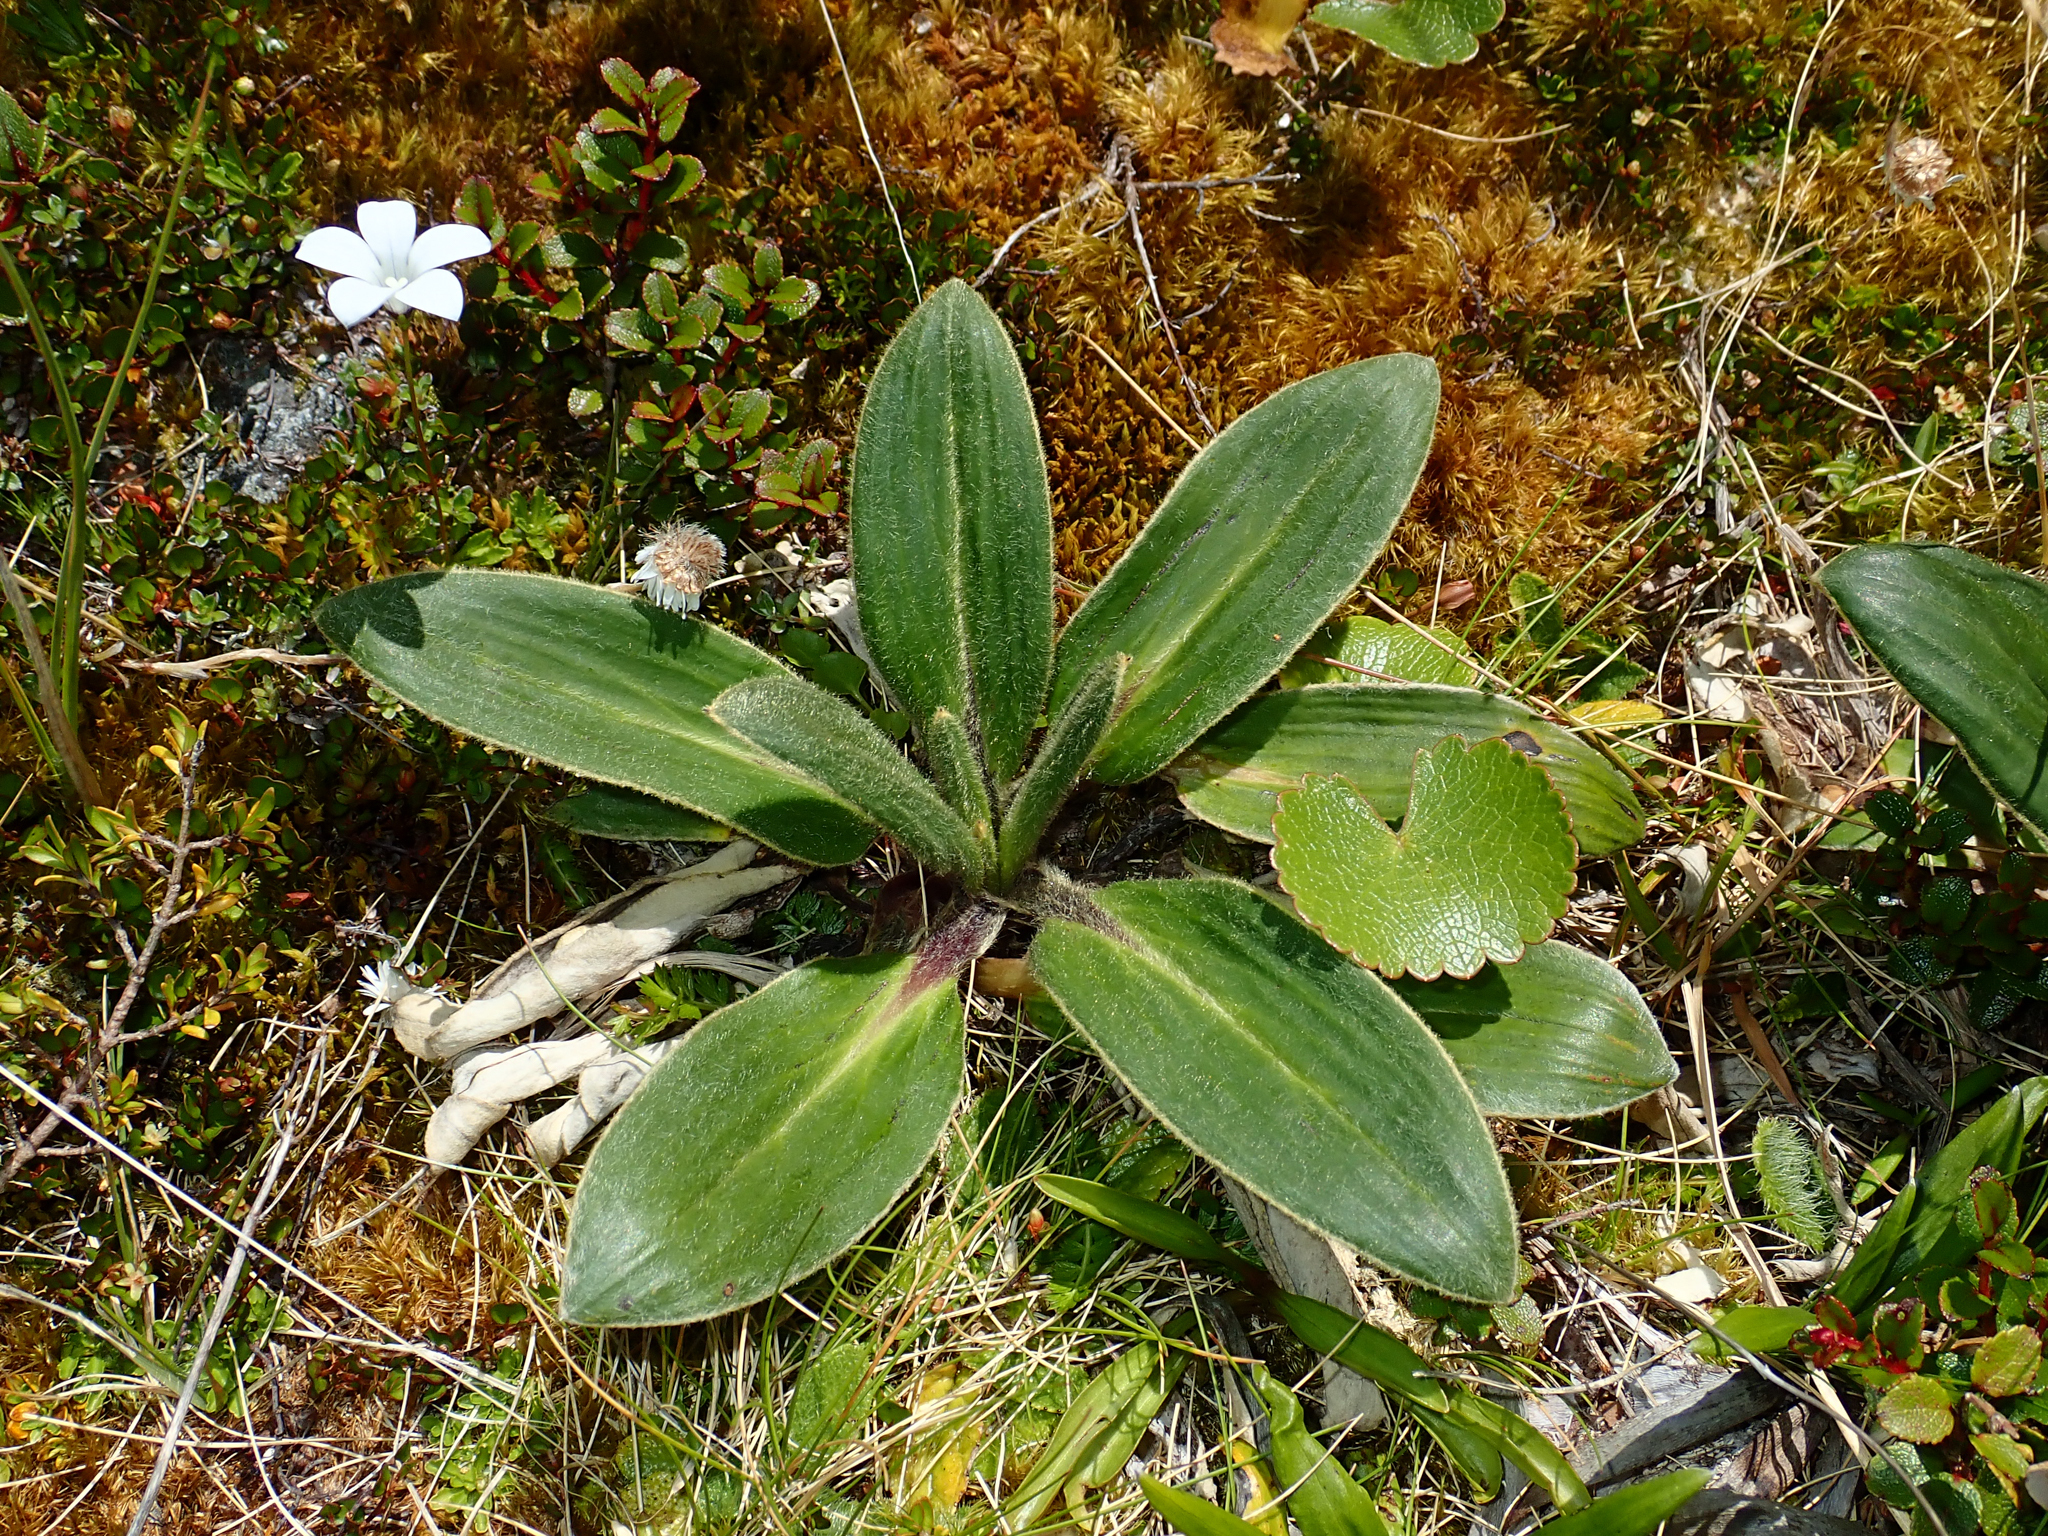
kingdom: Plantae
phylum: Tracheophyta
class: Magnoliopsida
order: Asterales
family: Asteraceae
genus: Celmisia
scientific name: Celmisia verbascifolia
